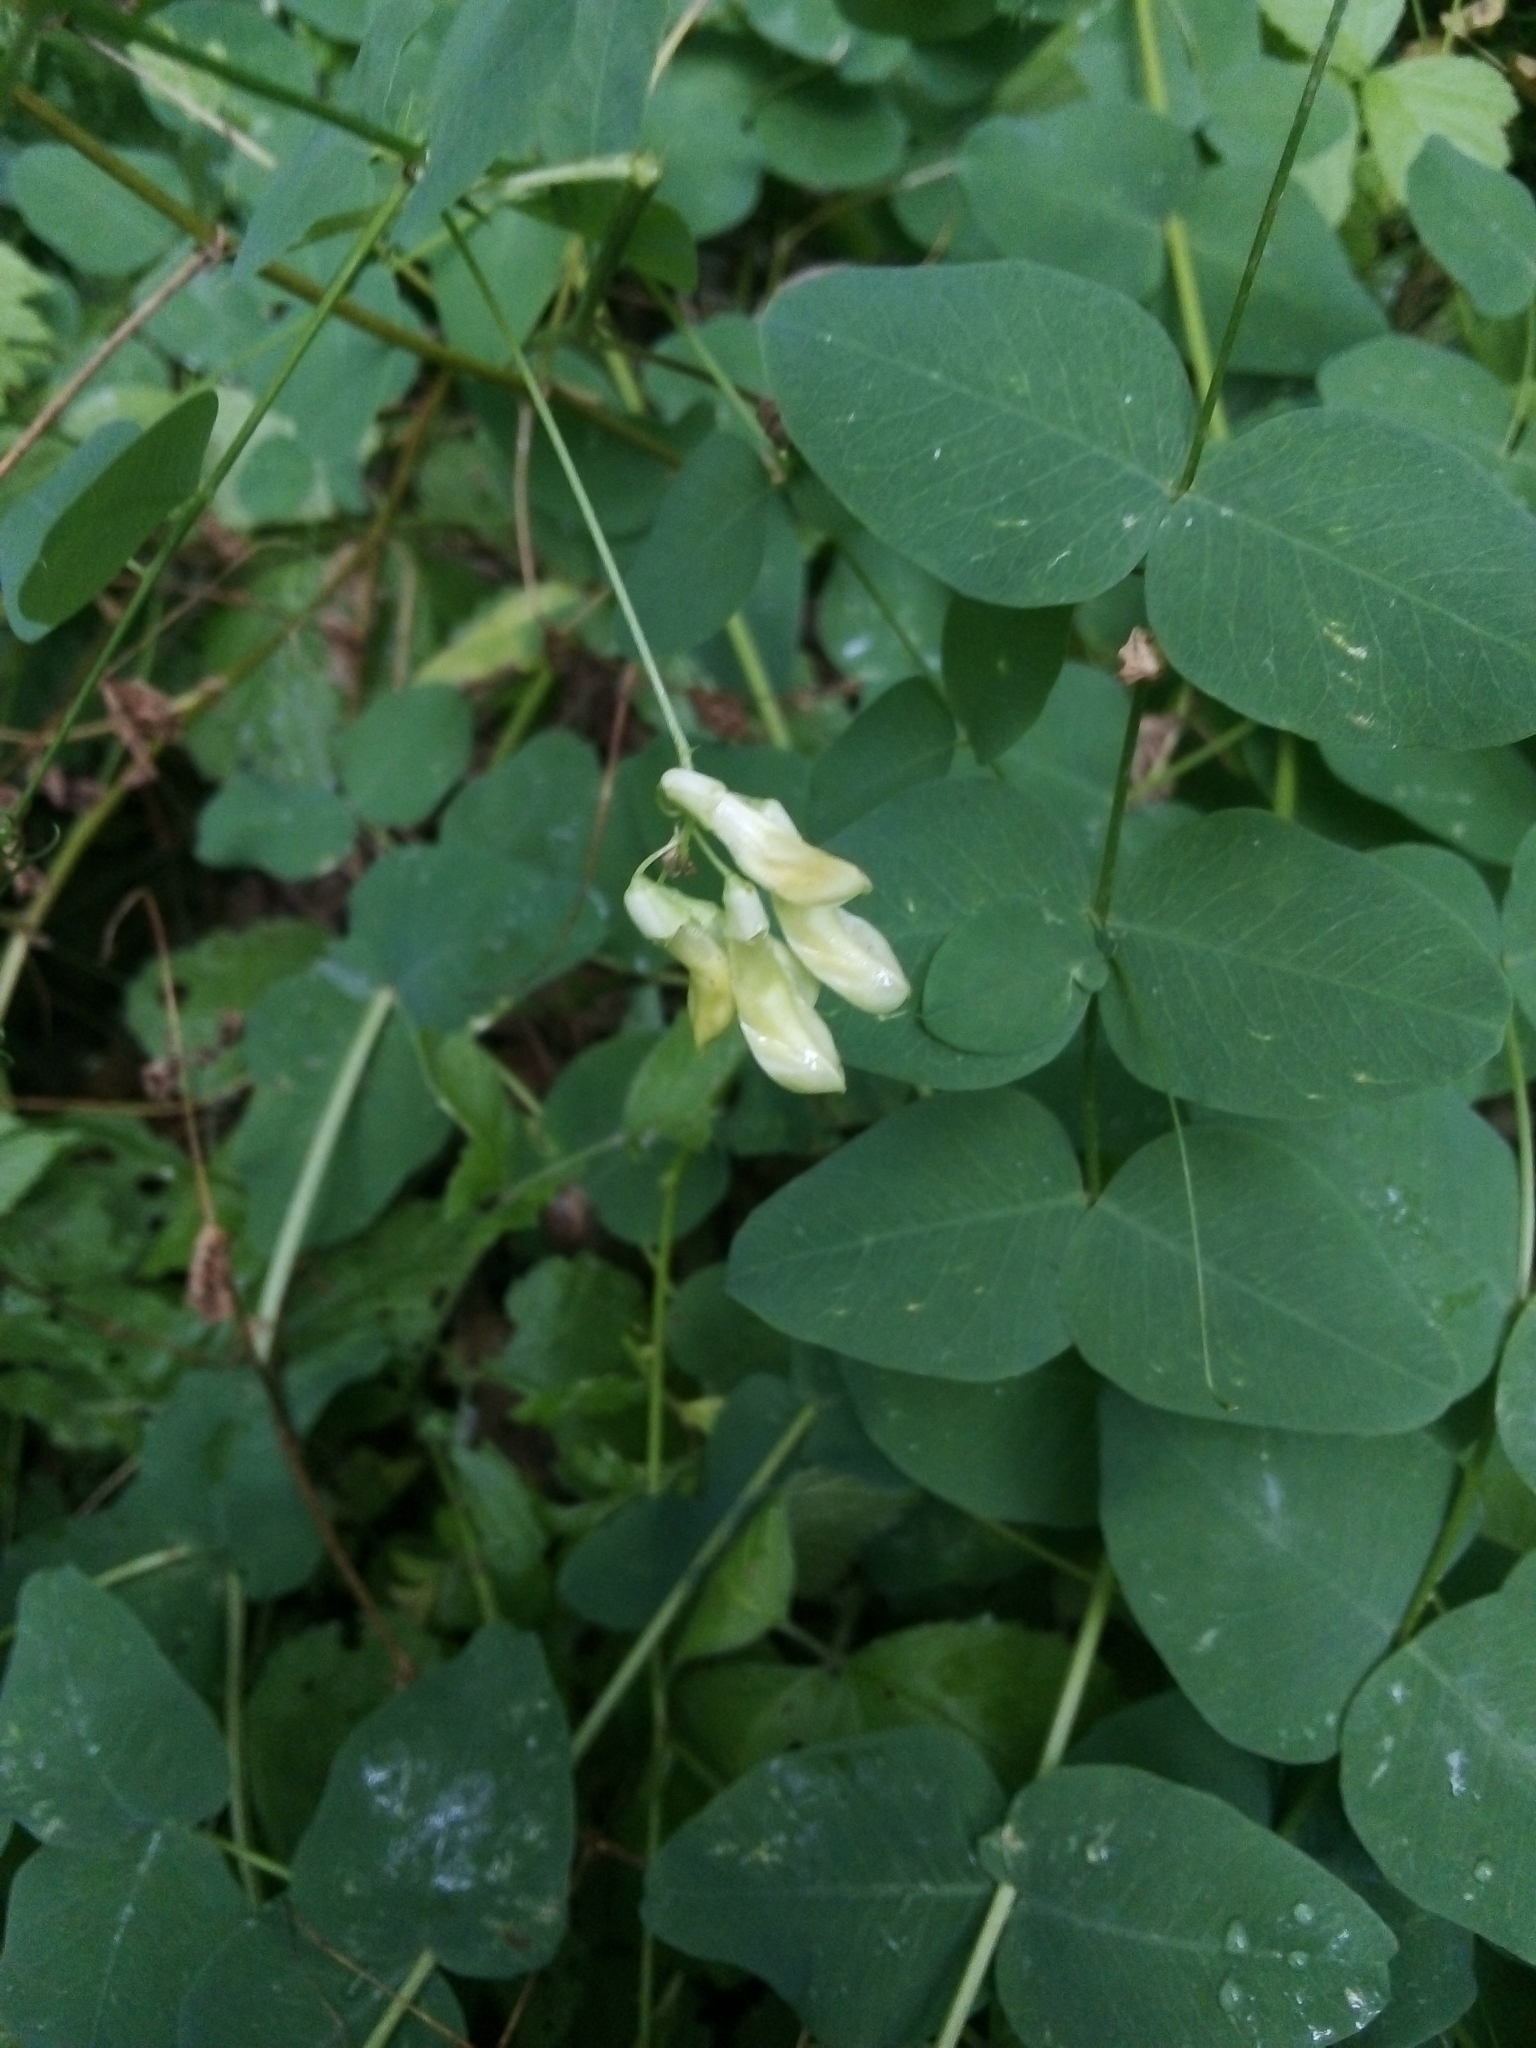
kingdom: Plantae
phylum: Tracheophyta
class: Magnoliopsida
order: Fabales
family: Fabaceae
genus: Vicia
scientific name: Vicia pisiformis
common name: Pale-flower vetch
